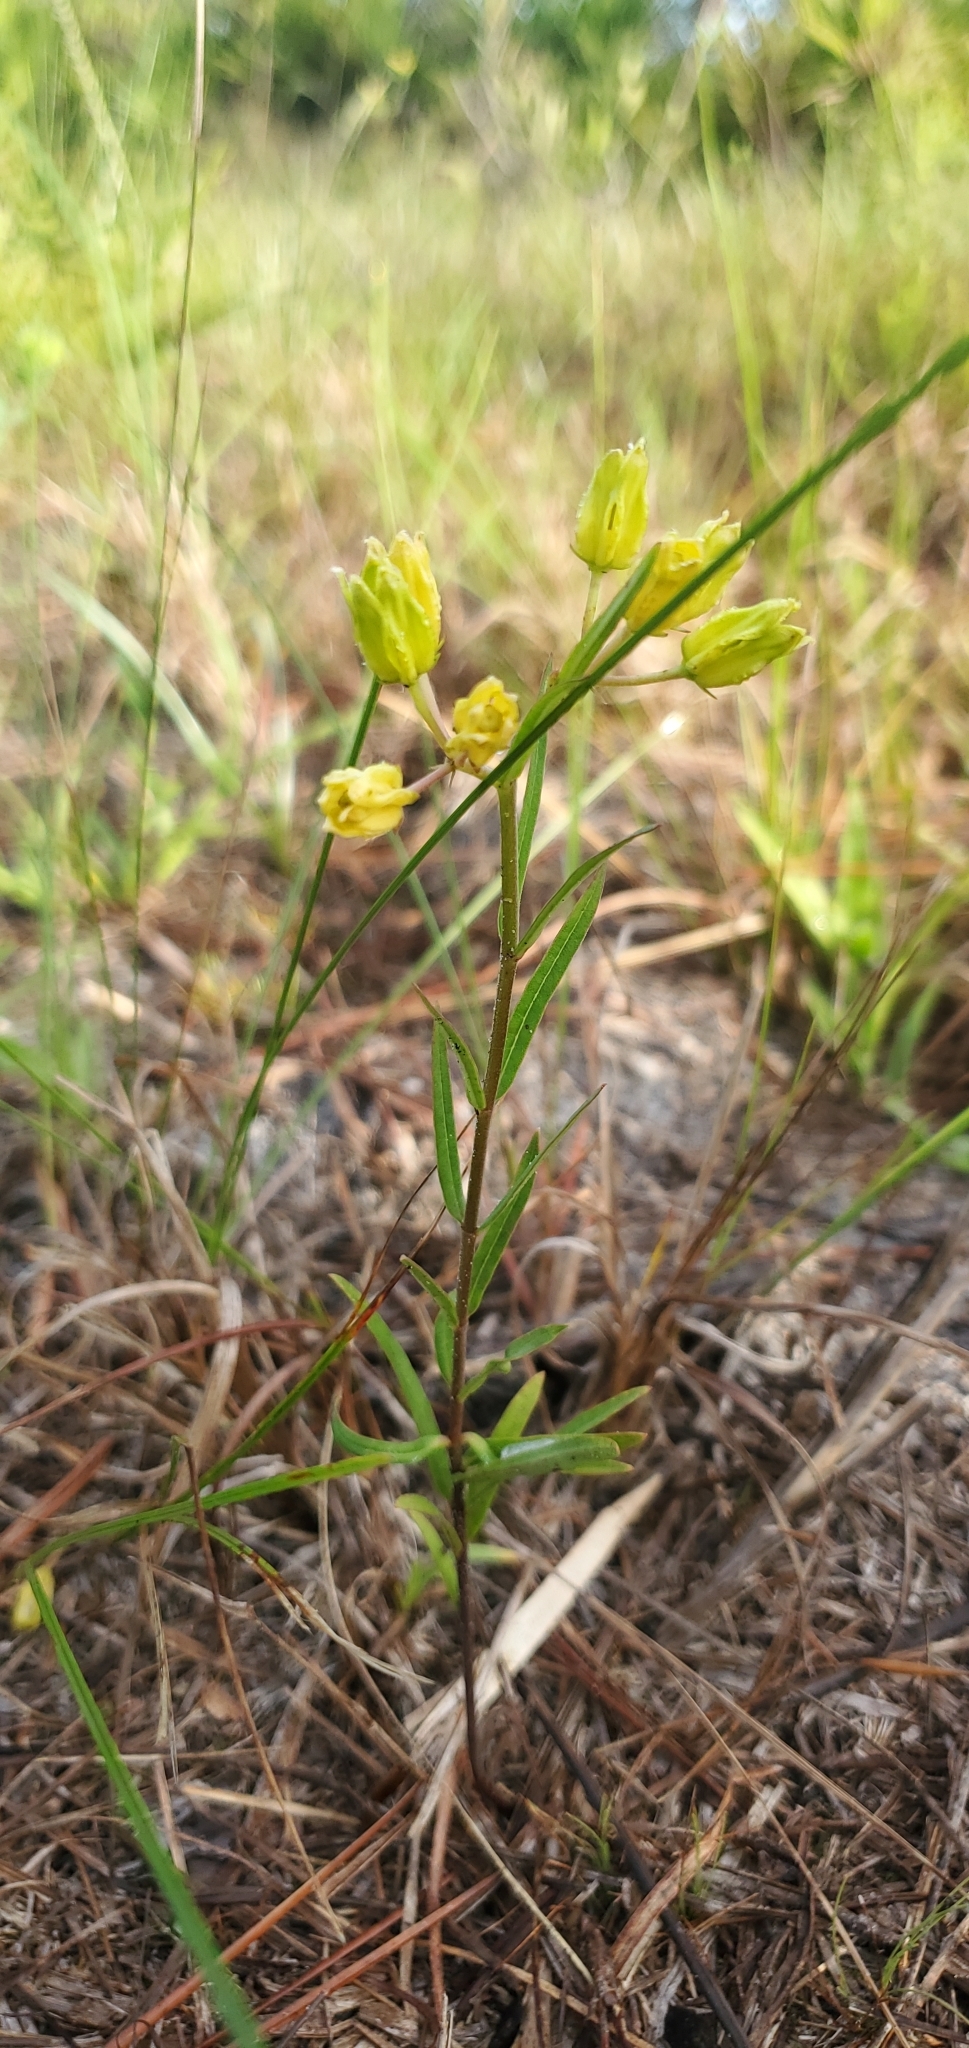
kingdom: Plantae
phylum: Tracheophyta
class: Magnoliopsida
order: Gentianales
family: Apocynaceae
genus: Asclepias
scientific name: Asclepias pedicellata
